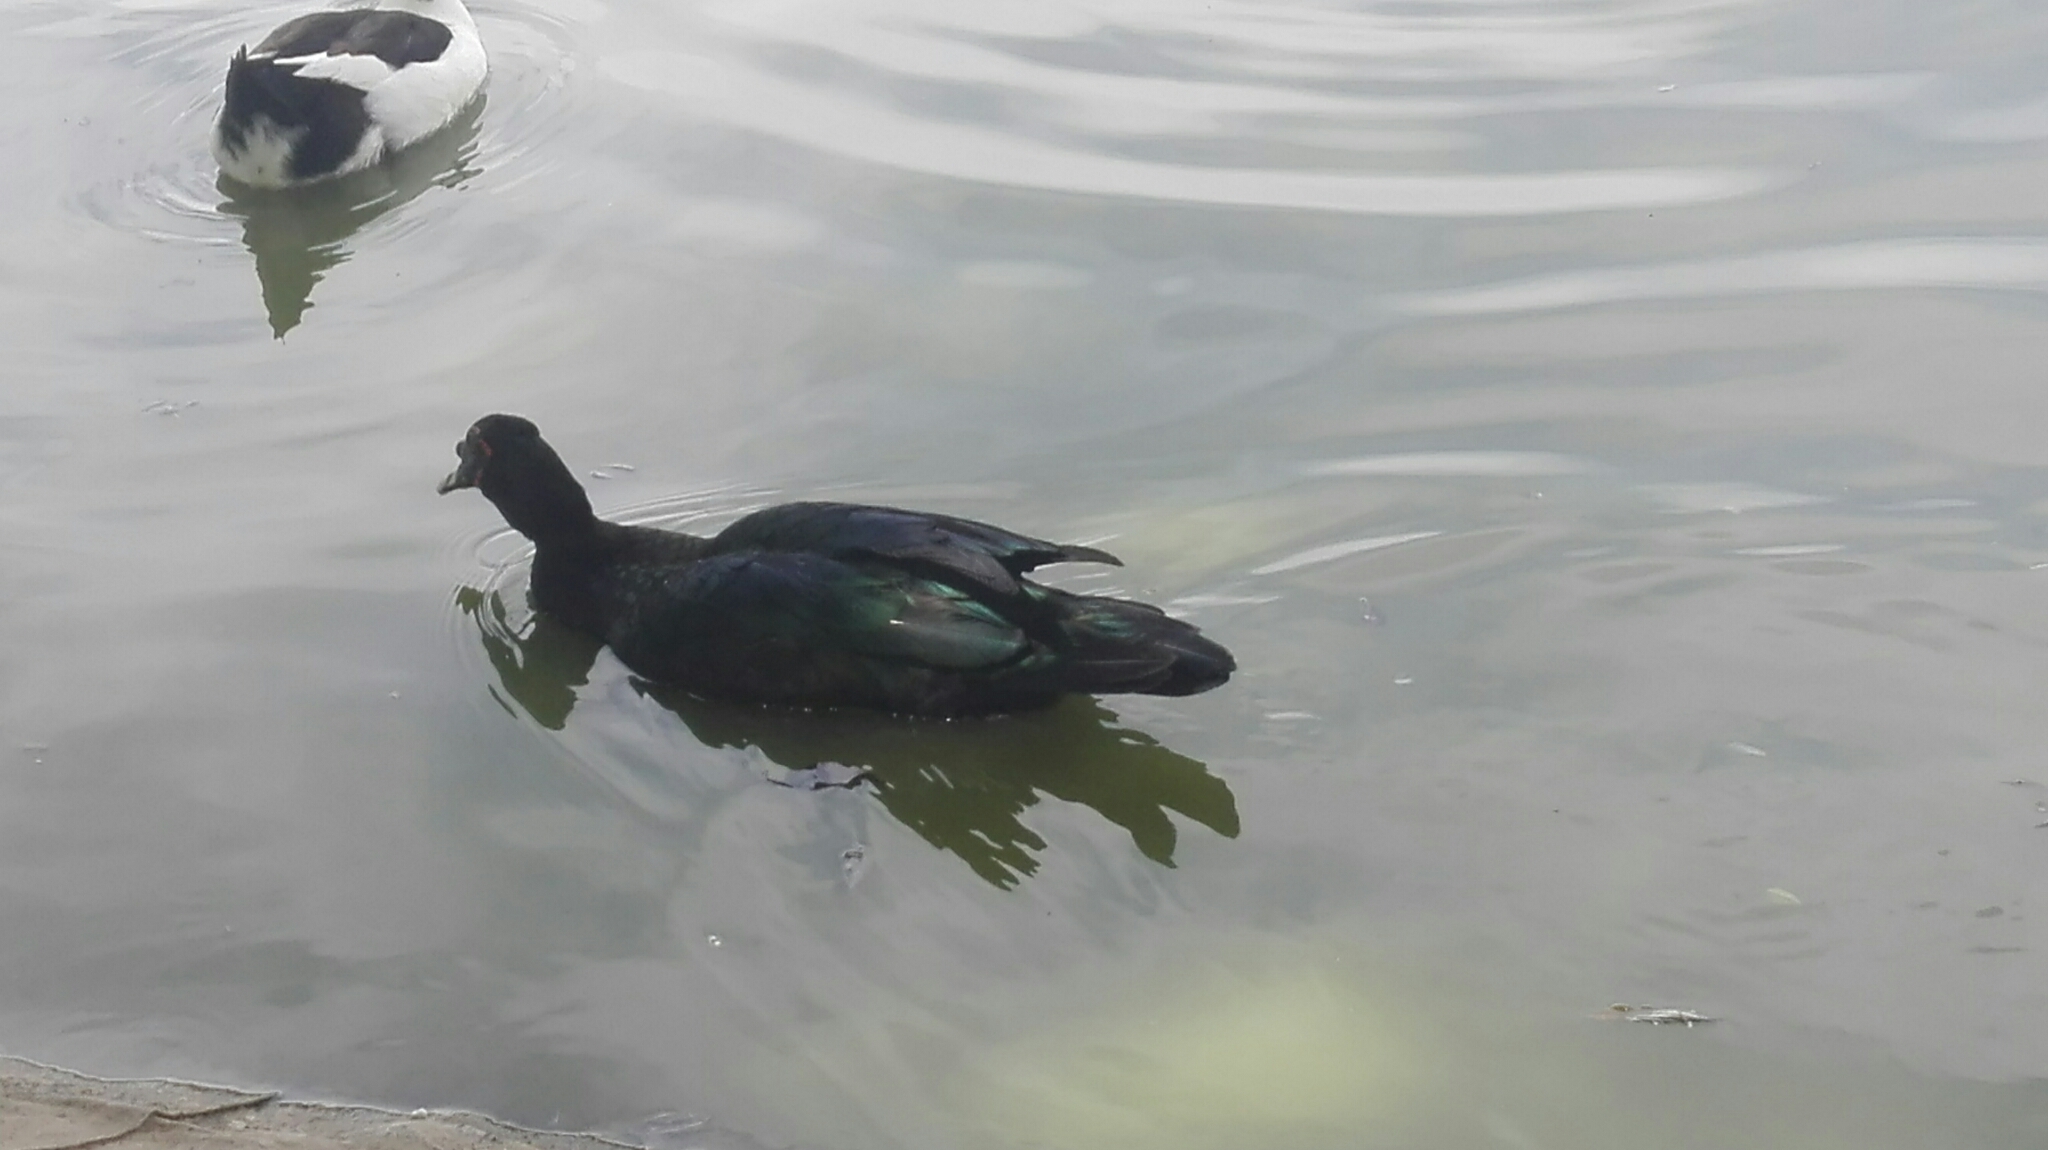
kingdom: Animalia
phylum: Chordata
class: Aves
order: Anseriformes
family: Anatidae
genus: Cairina
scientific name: Cairina moschata
